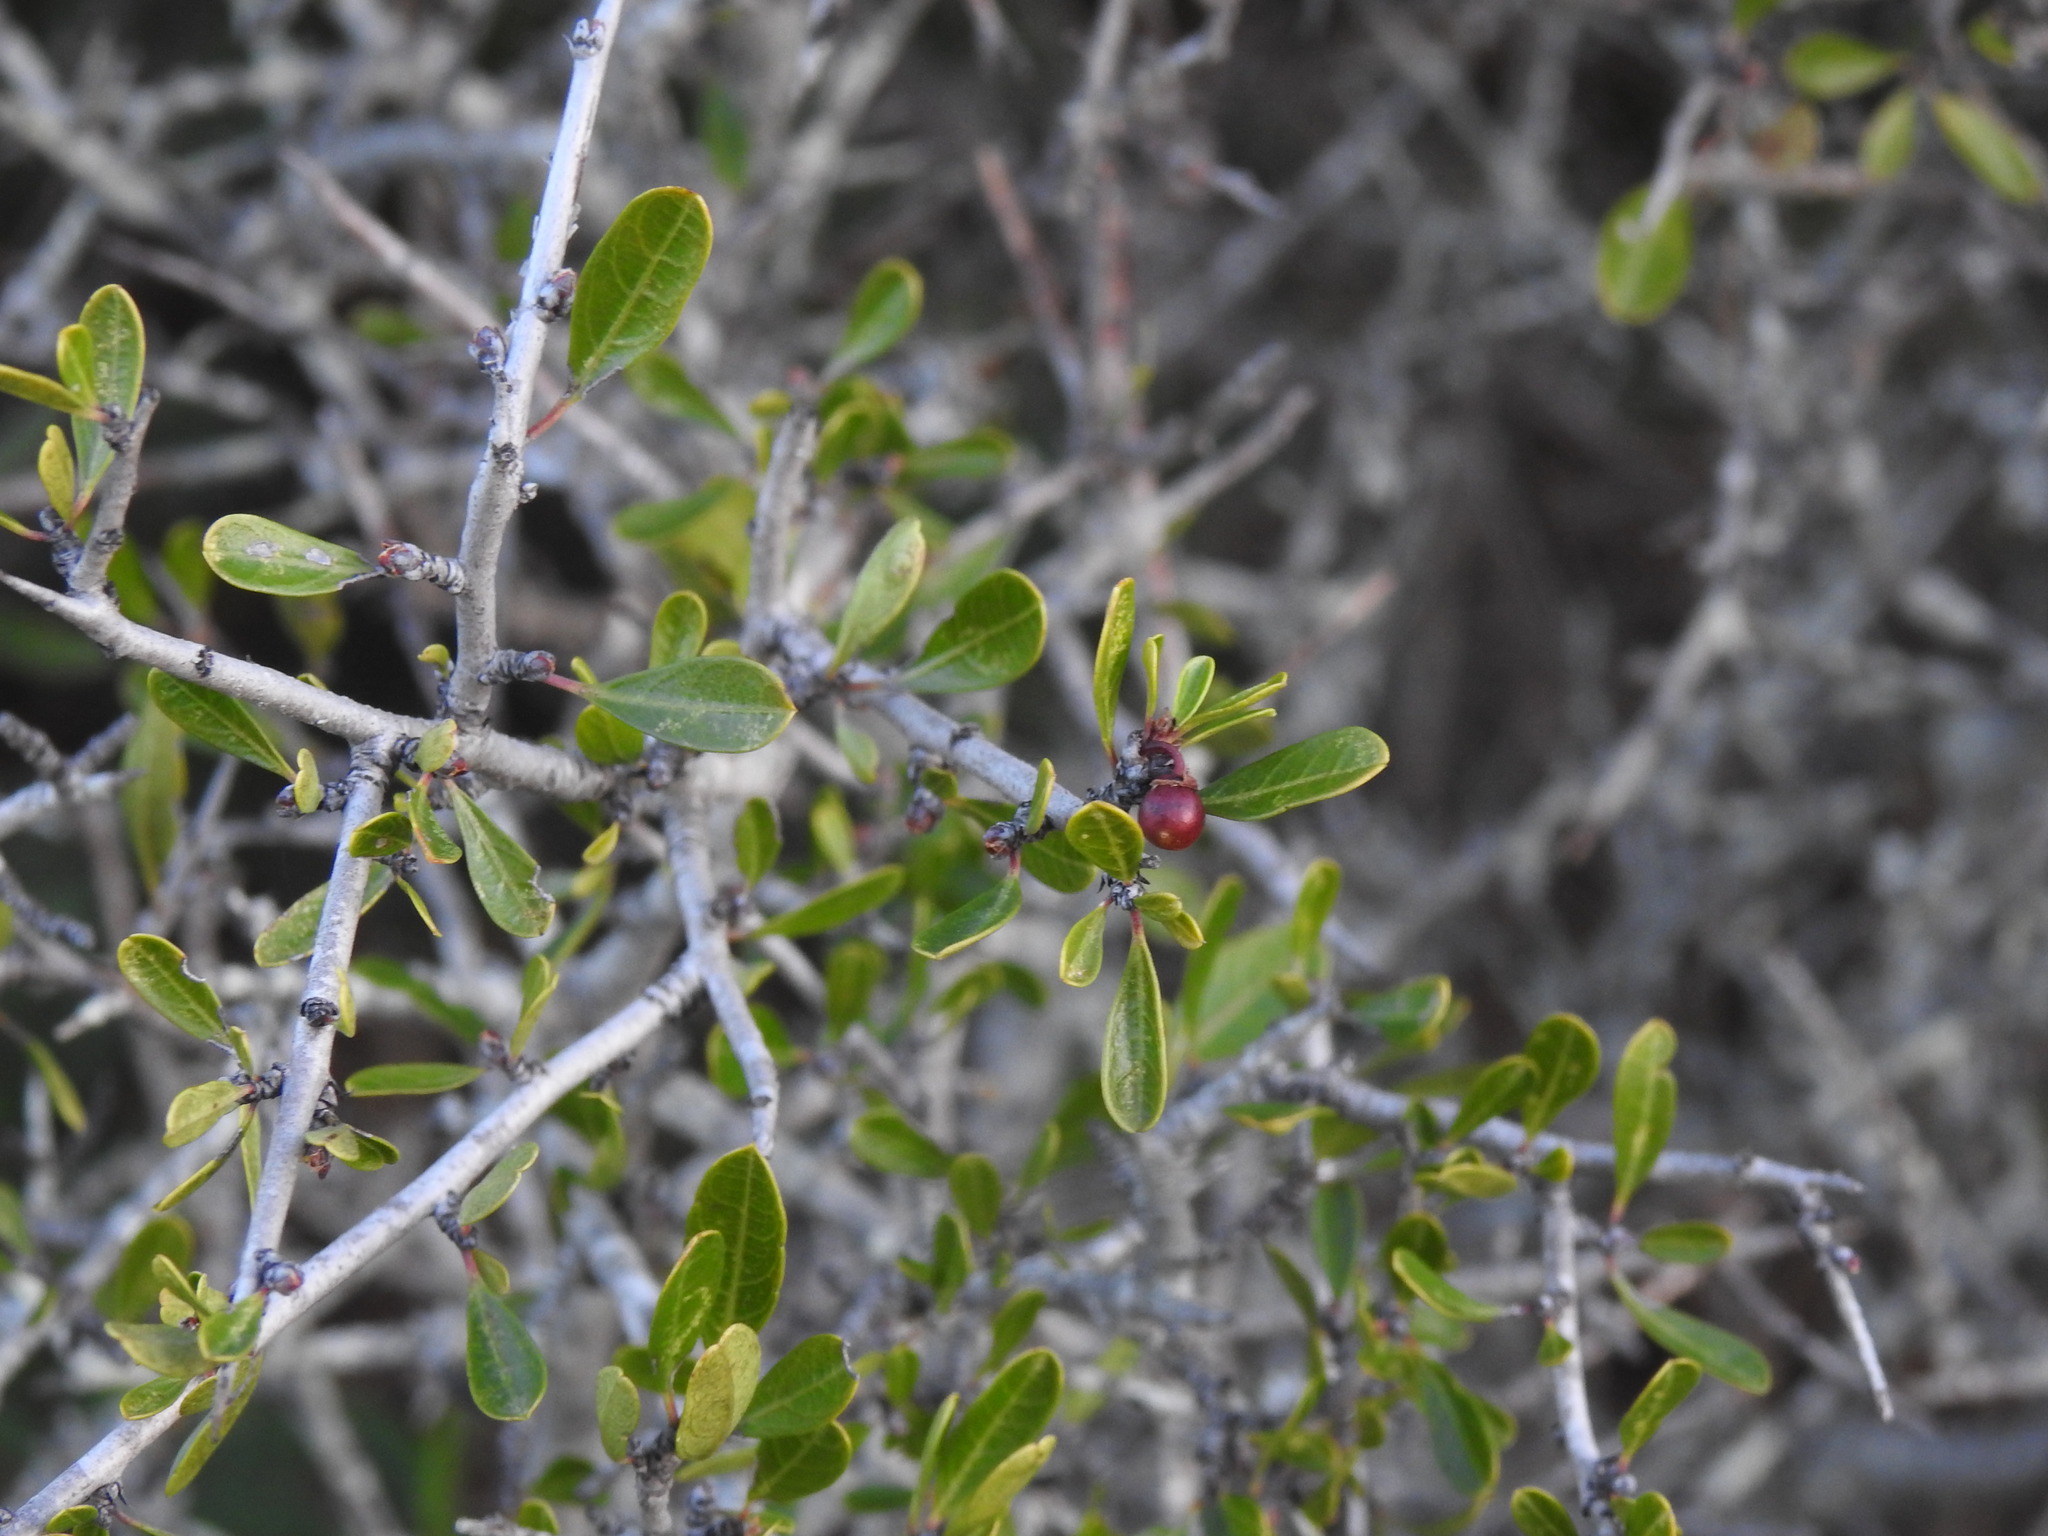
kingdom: Plantae
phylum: Tracheophyta
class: Magnoliopsida
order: Rosales
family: Rhamnaceae
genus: Rhamnus
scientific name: Rhamnus oleoides
